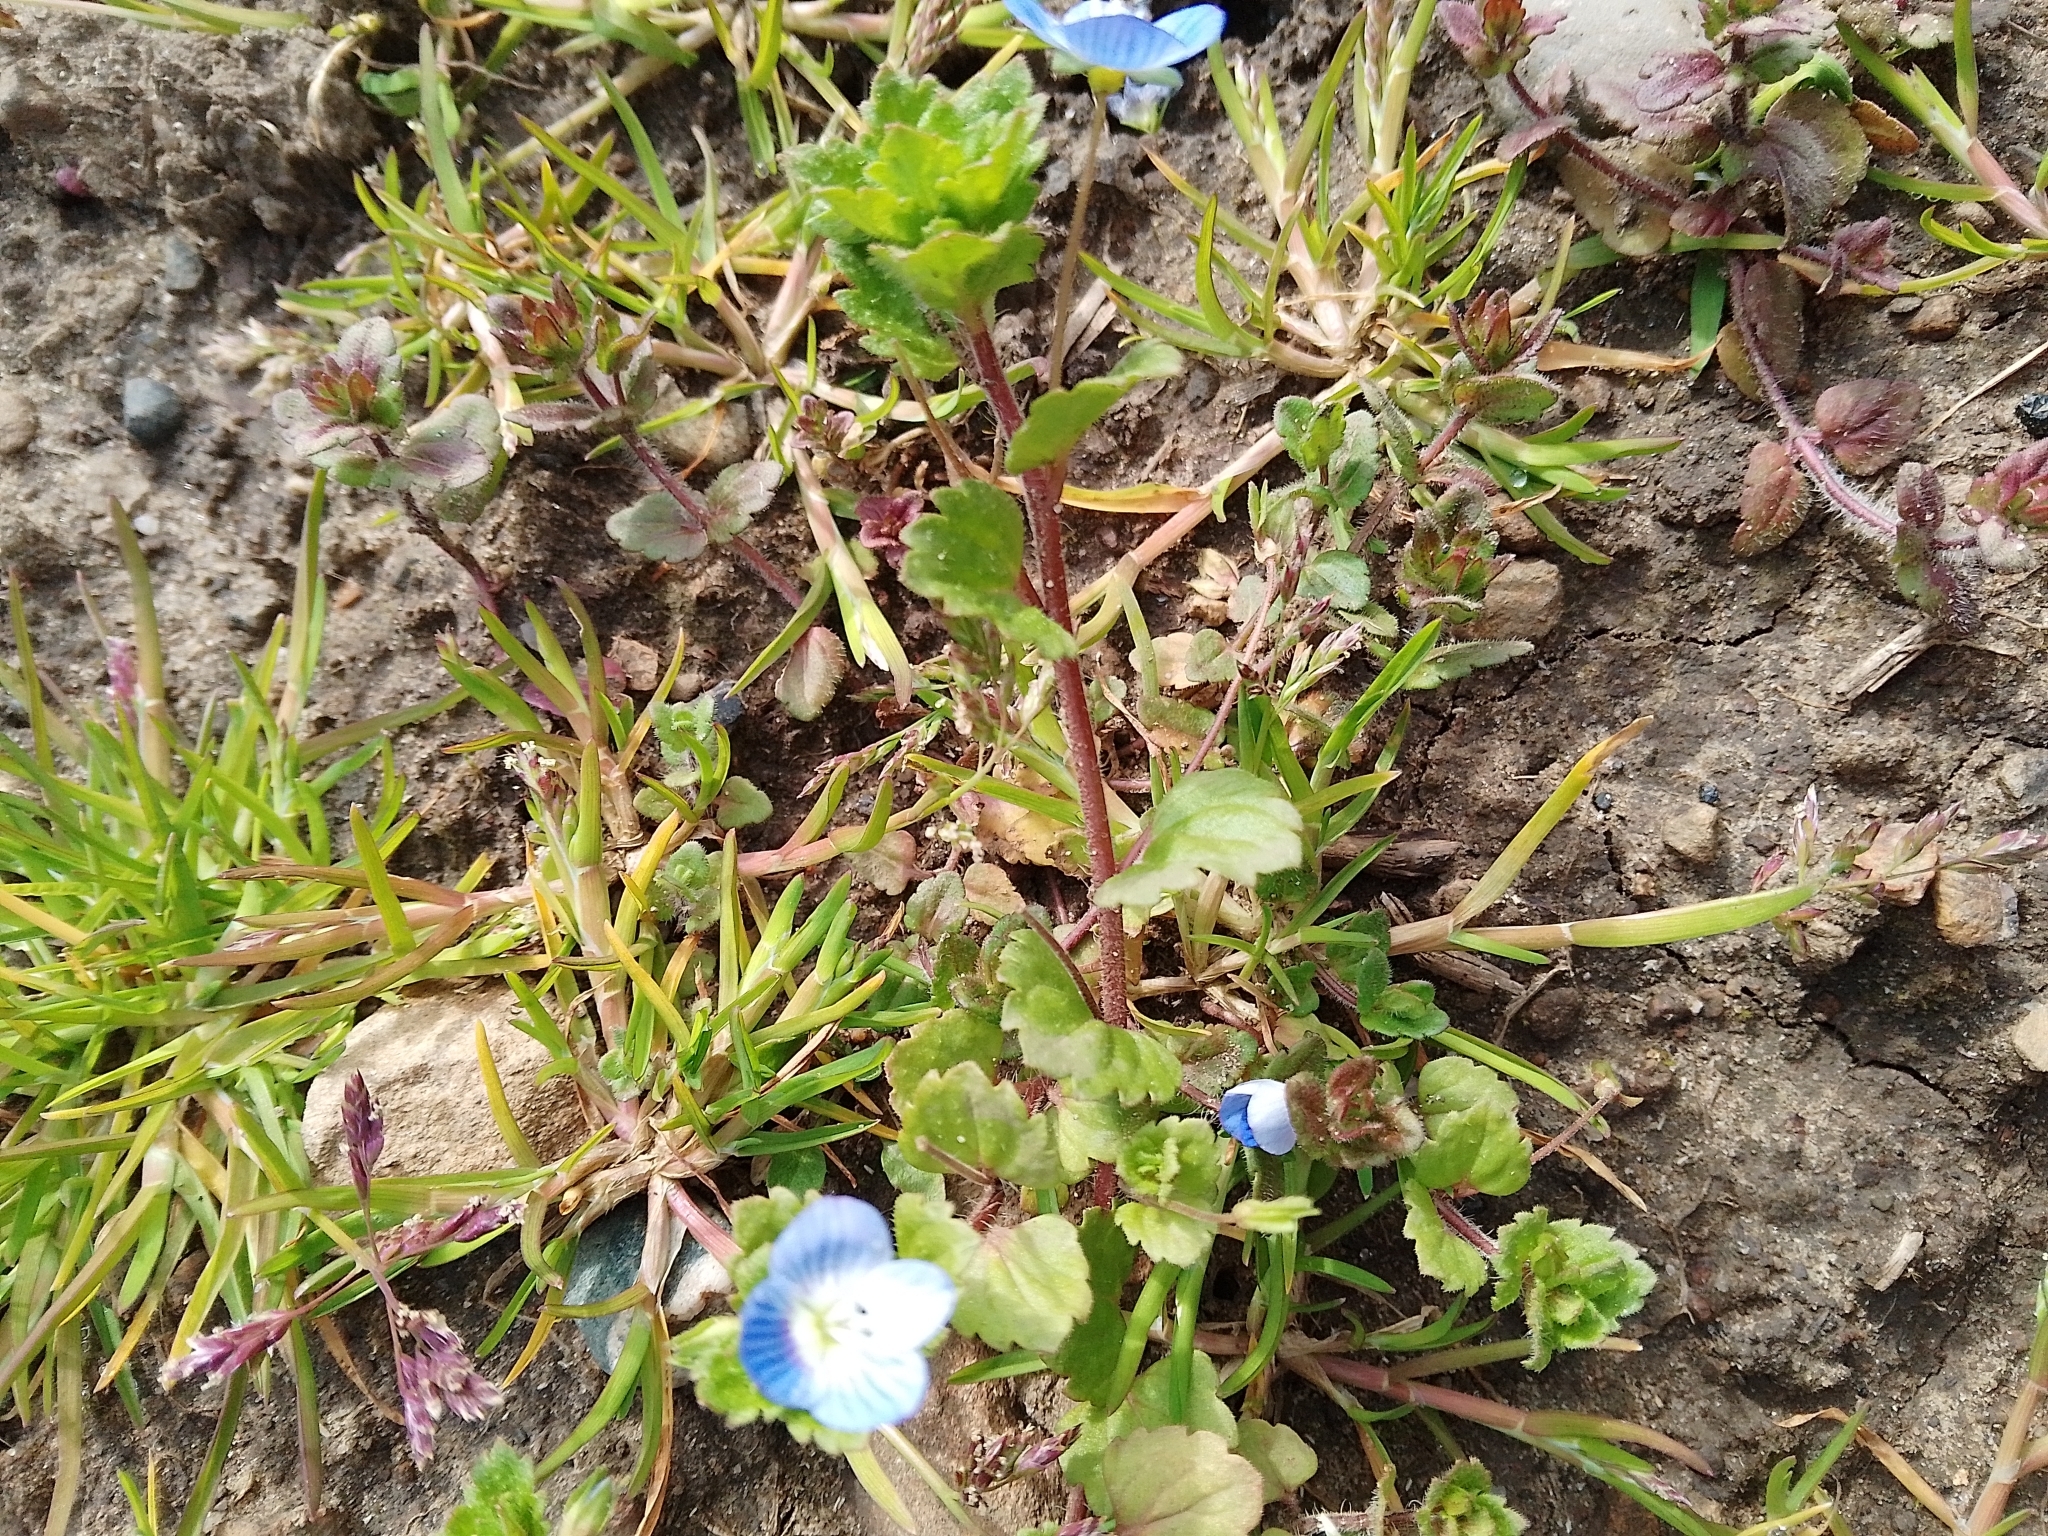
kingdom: Plantae
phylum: Tracheophyta
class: Magnoliopsida
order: Lamiales
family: Plantaginaceae
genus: Veronica
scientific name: Veronica persica
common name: Common field-speedwell
